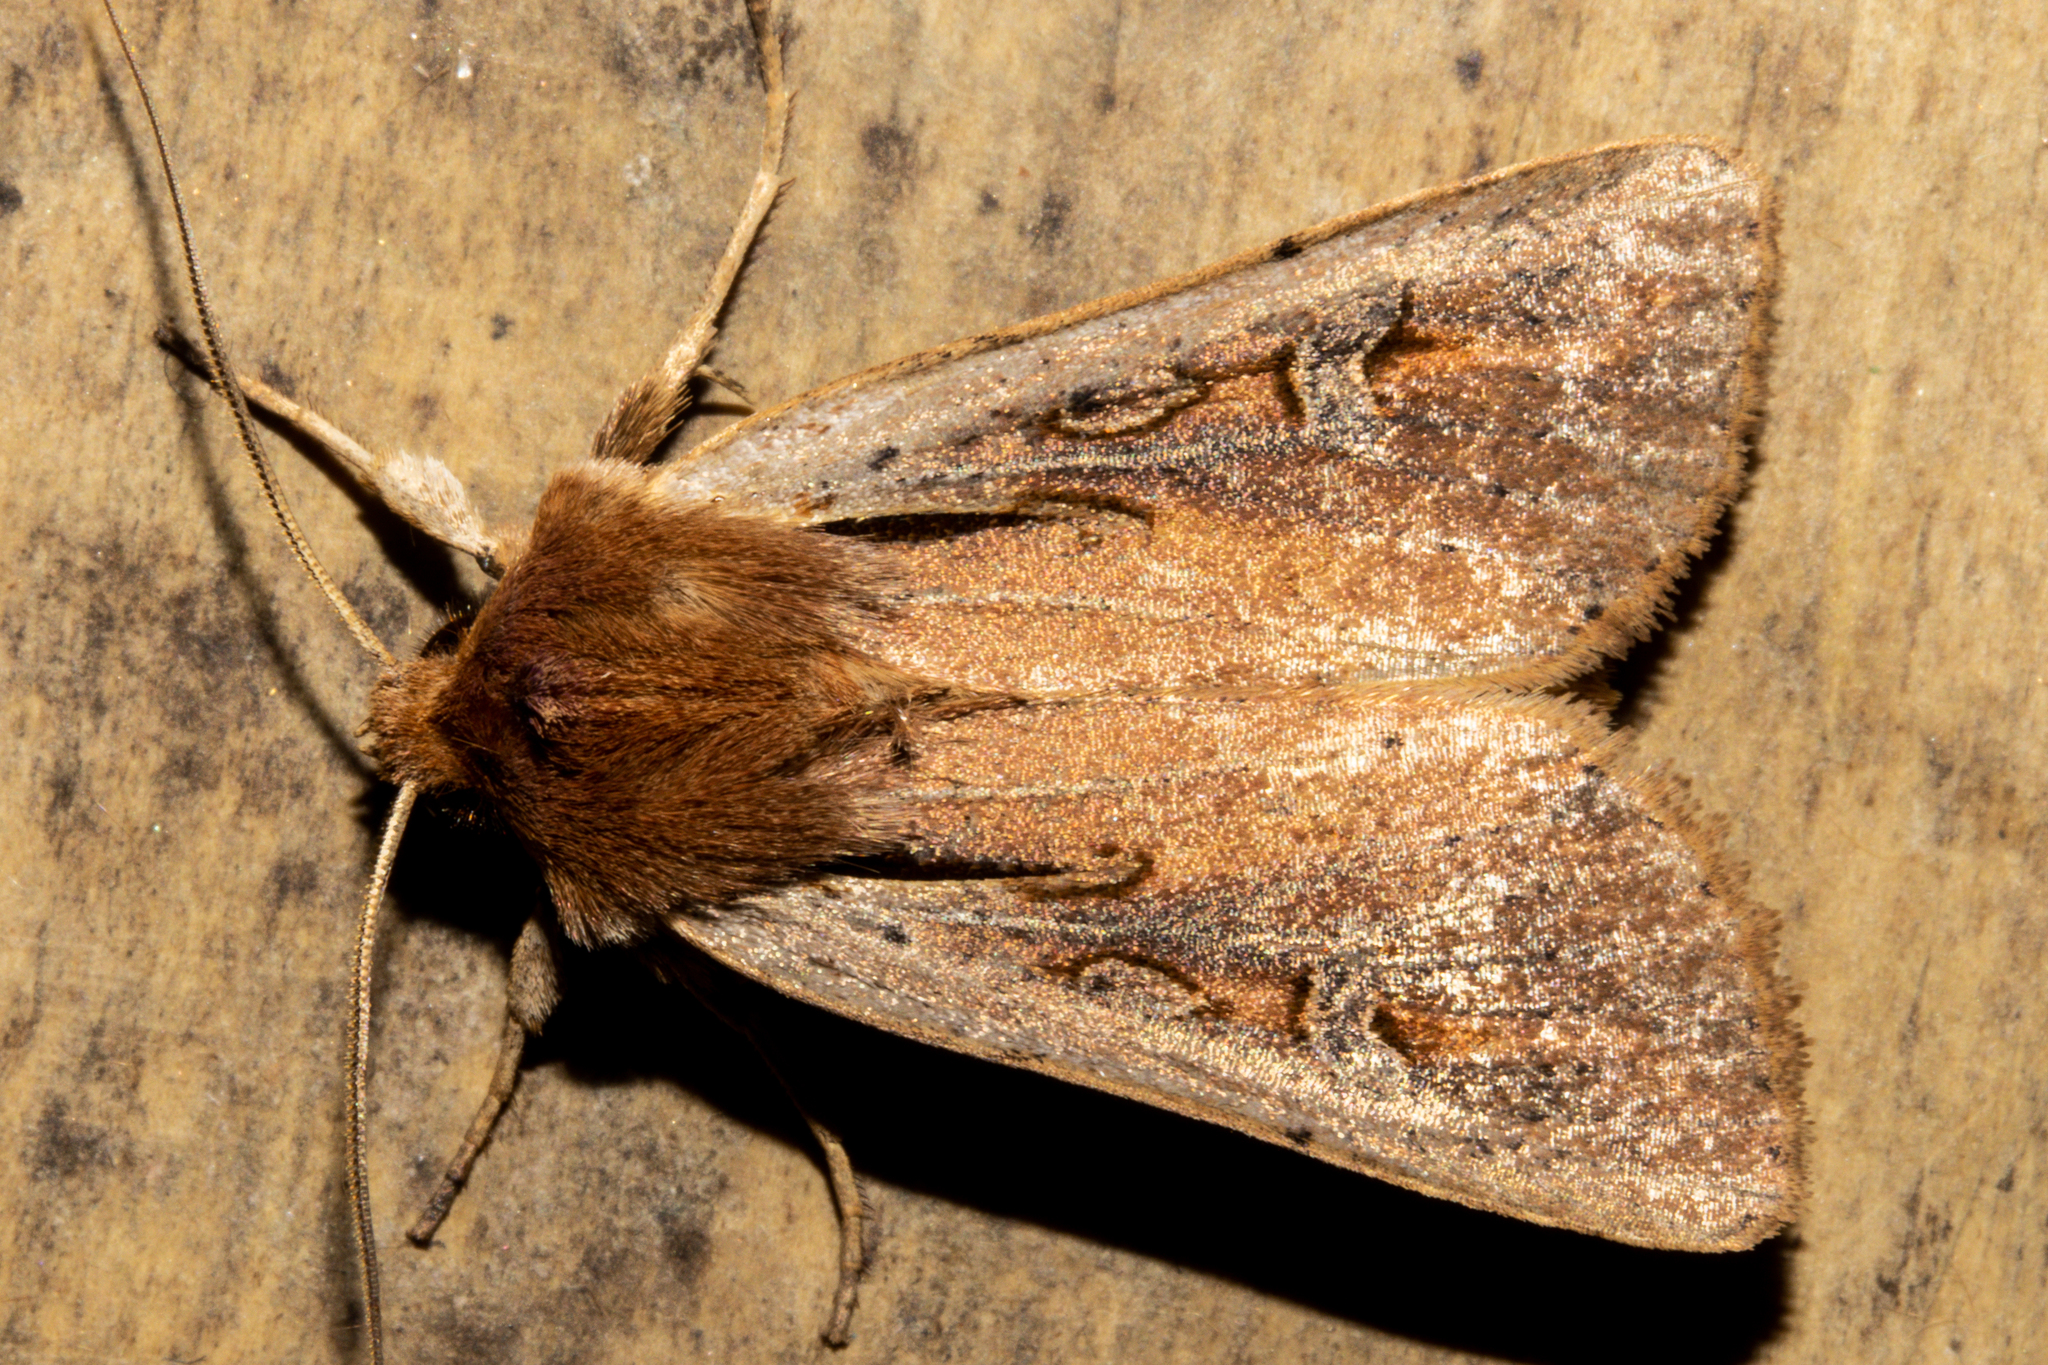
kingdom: Animalia
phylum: Arthropoda
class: Insecta
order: Lepidoptera
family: Noctuidae
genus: Ichneutica
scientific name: Ichneutica atristriga
